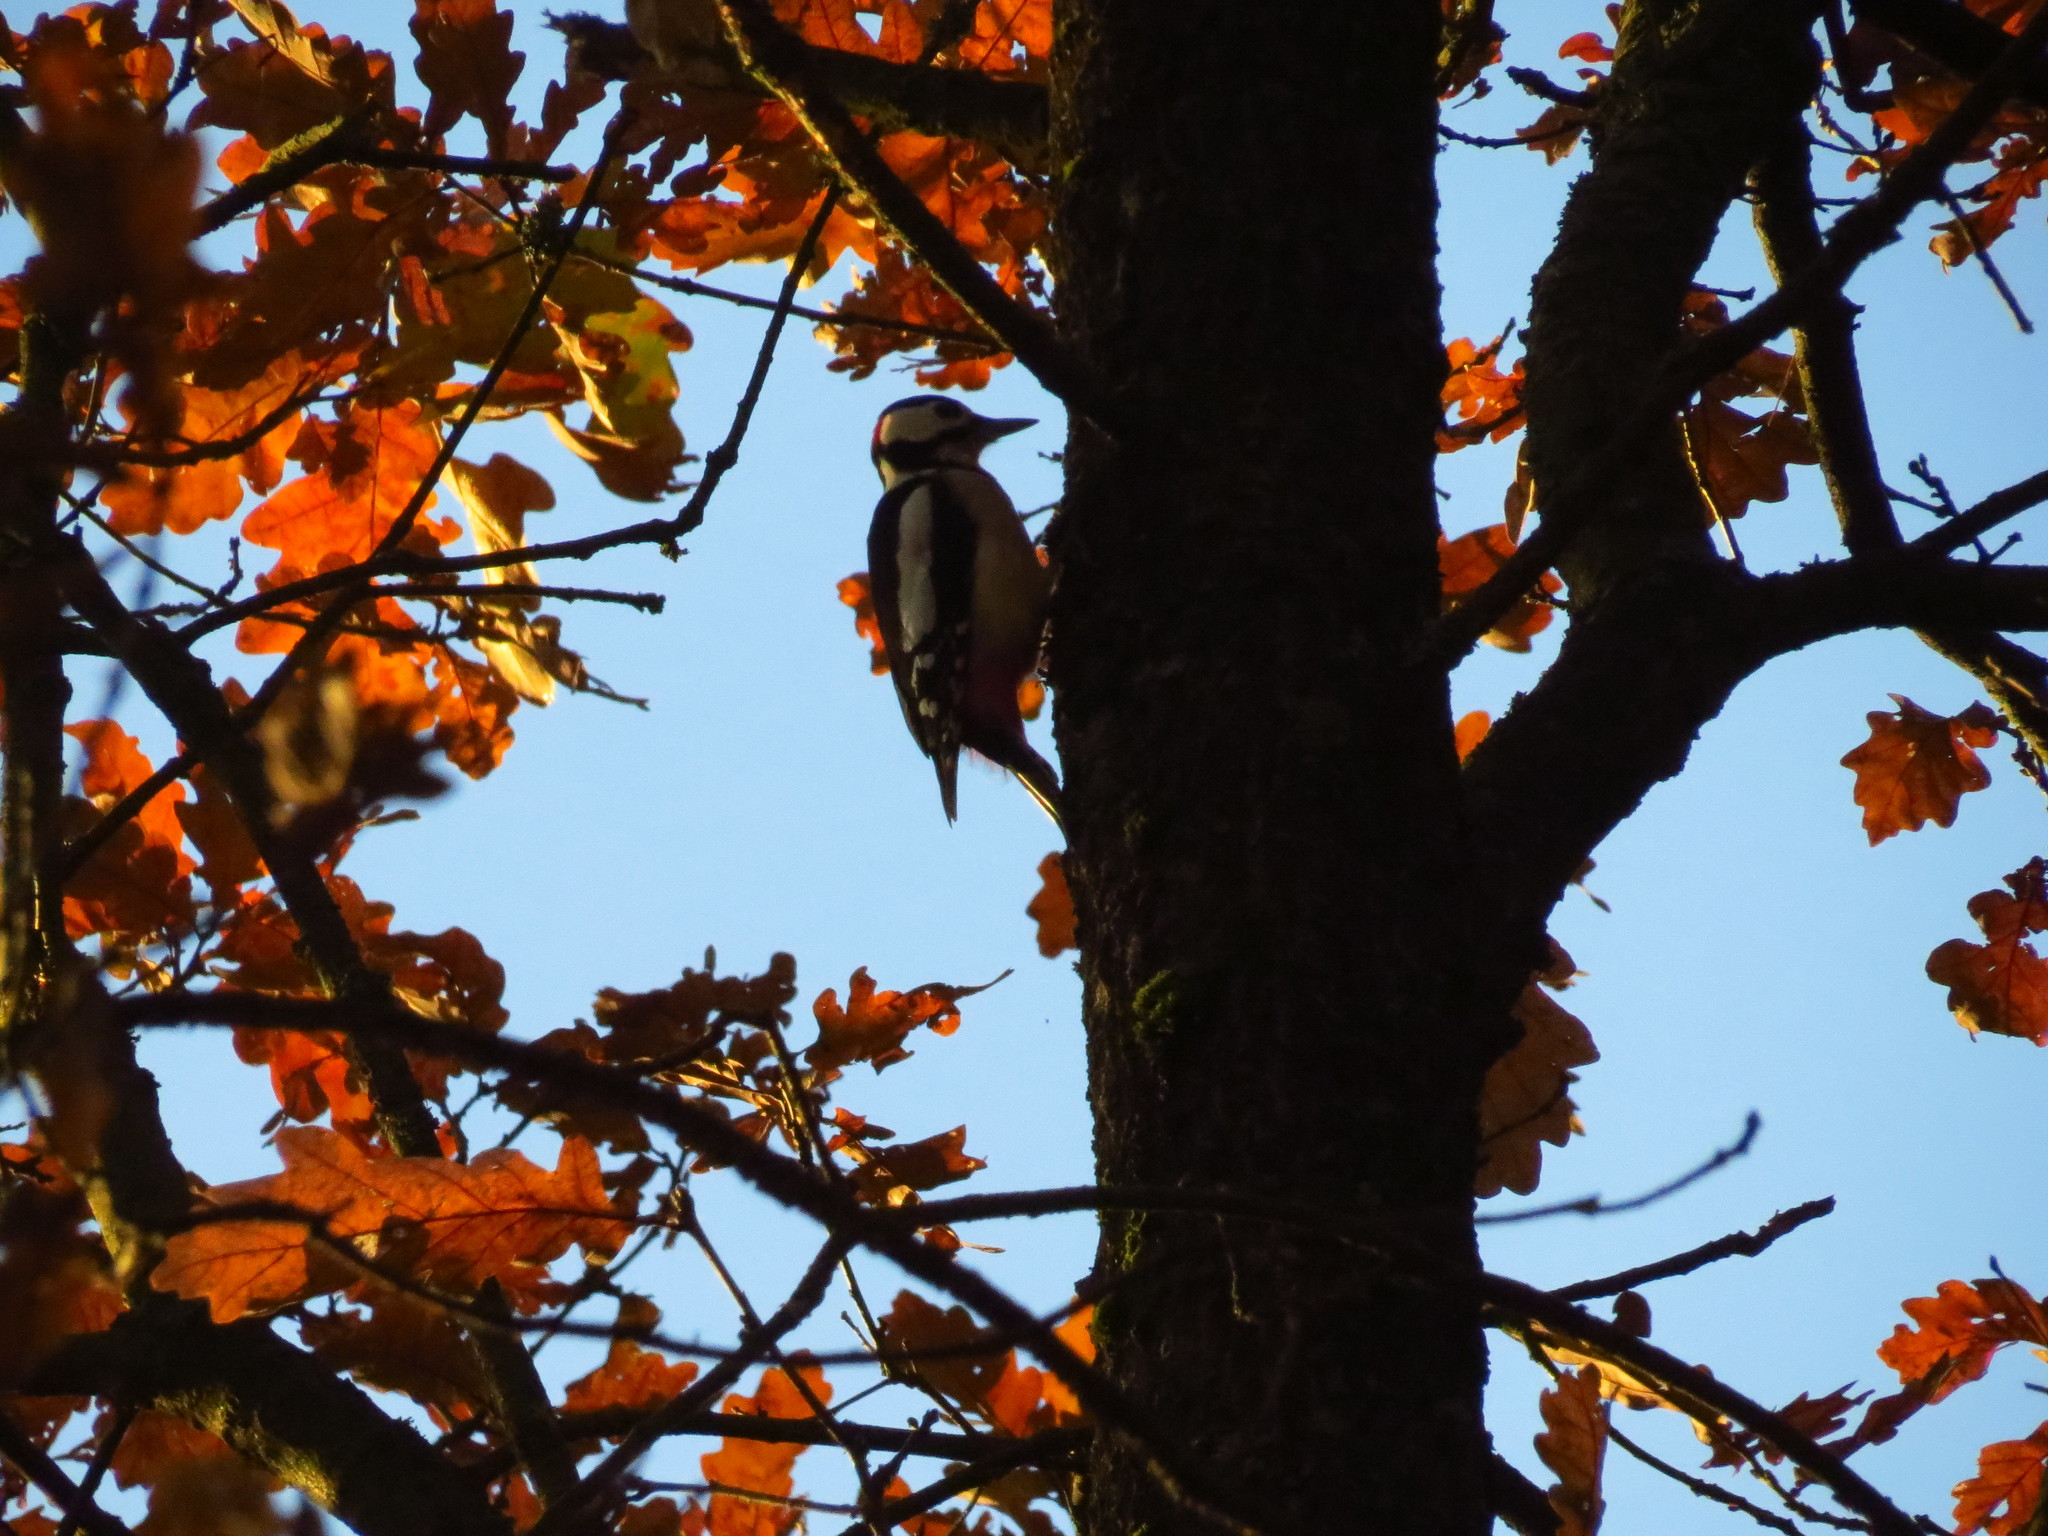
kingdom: Animalia
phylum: Chordata
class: Aves
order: Piciformes
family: Picidae
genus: Dendrocopos
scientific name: Dendrocopos major
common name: Great spotted woodpecker
